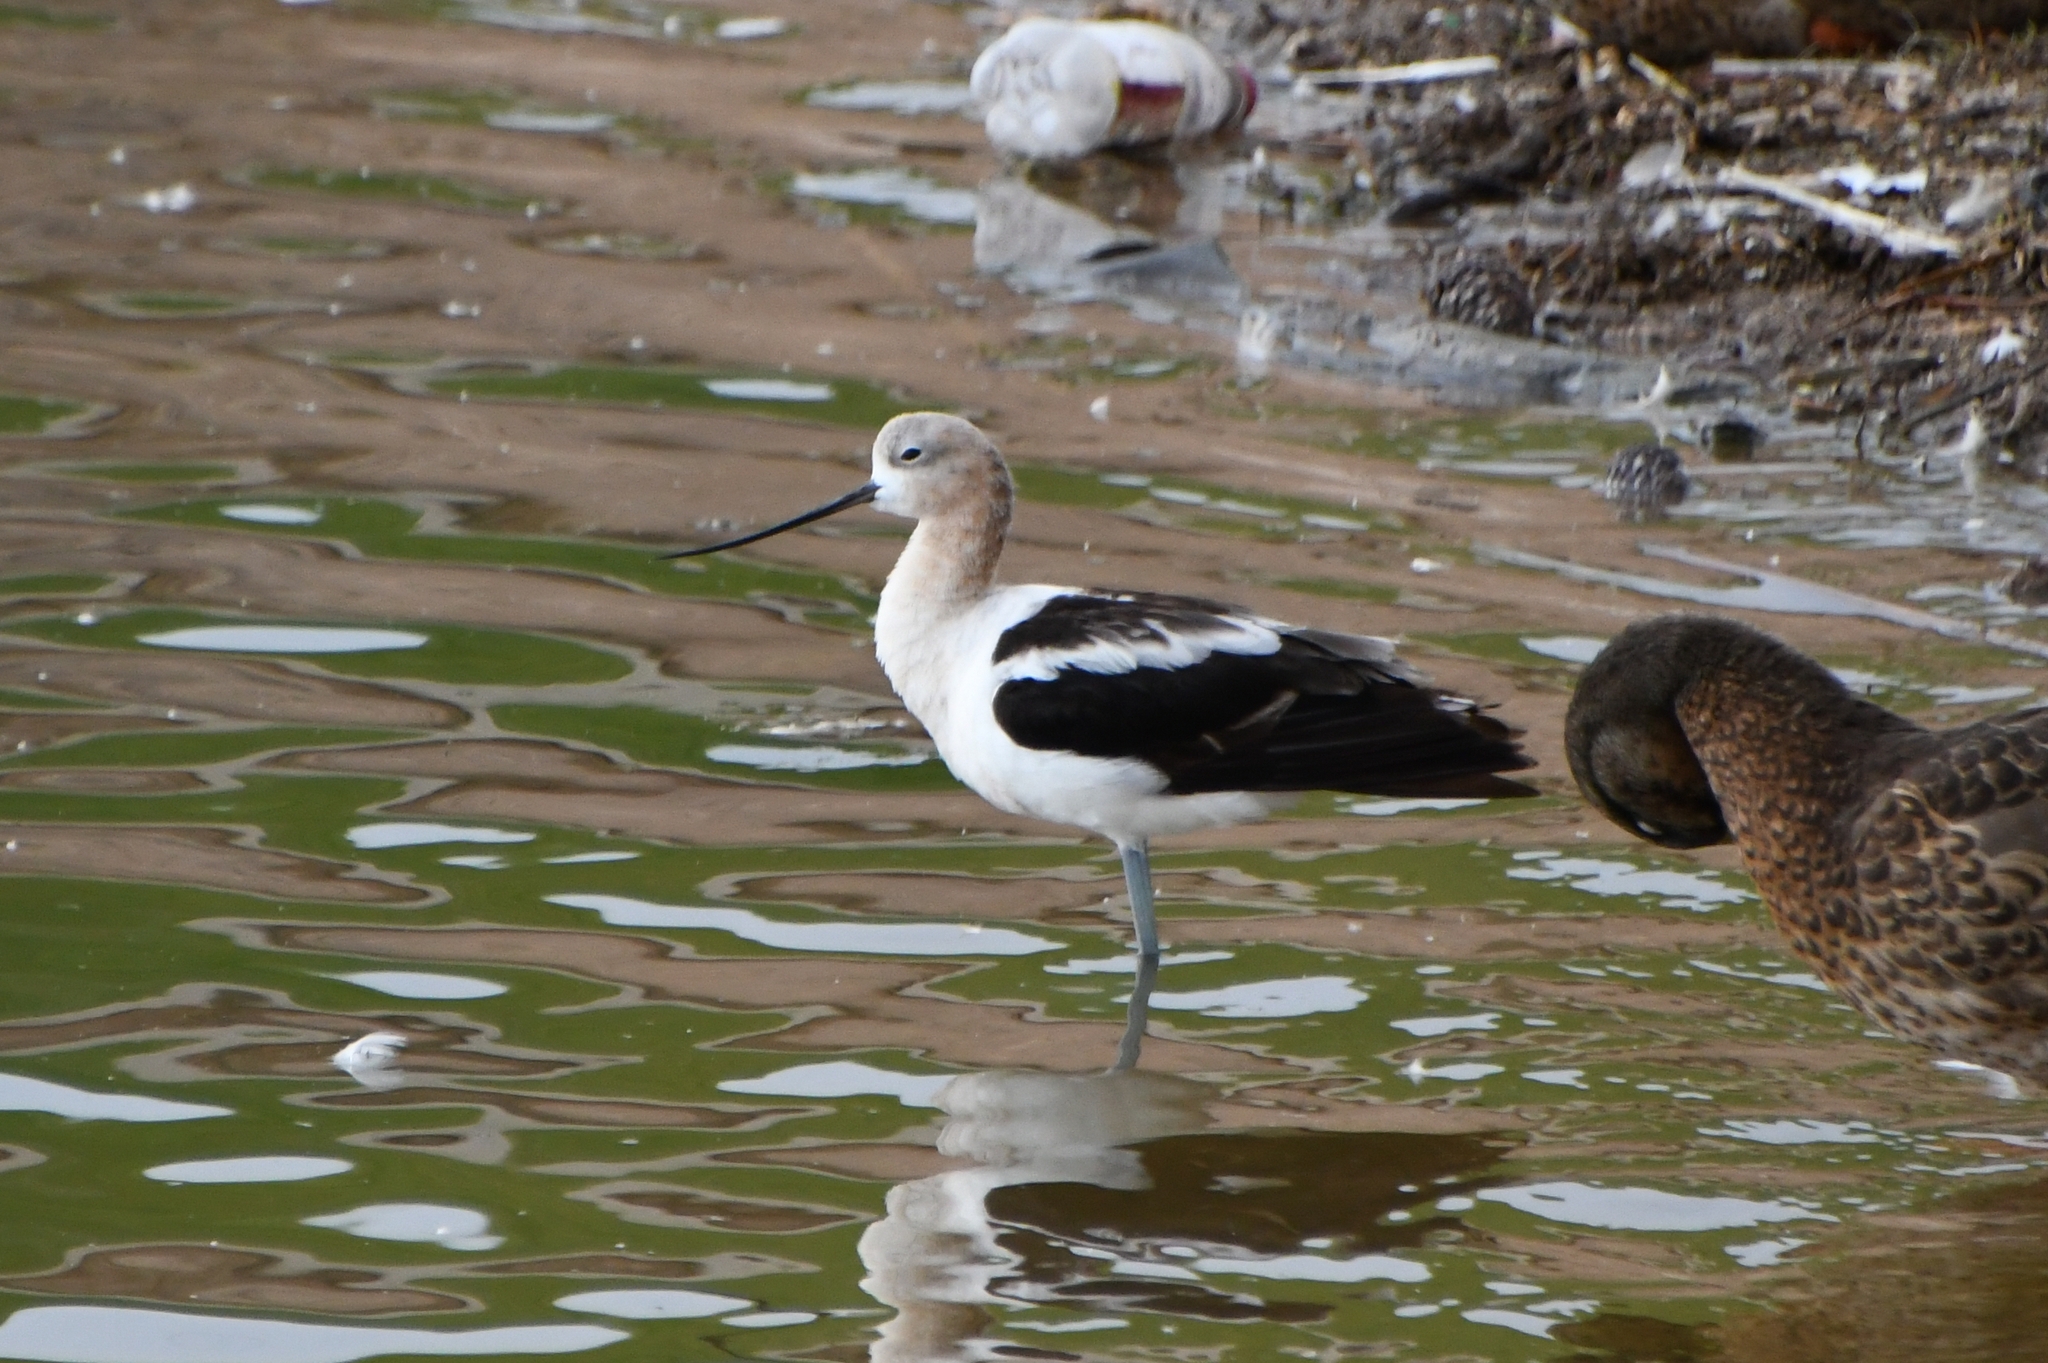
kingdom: Animalia
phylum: Chordata
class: Aves
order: Charadriiformes
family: Recurvirostridae
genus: Recurvirostra
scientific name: Recurvirostra americana
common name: American avocet
